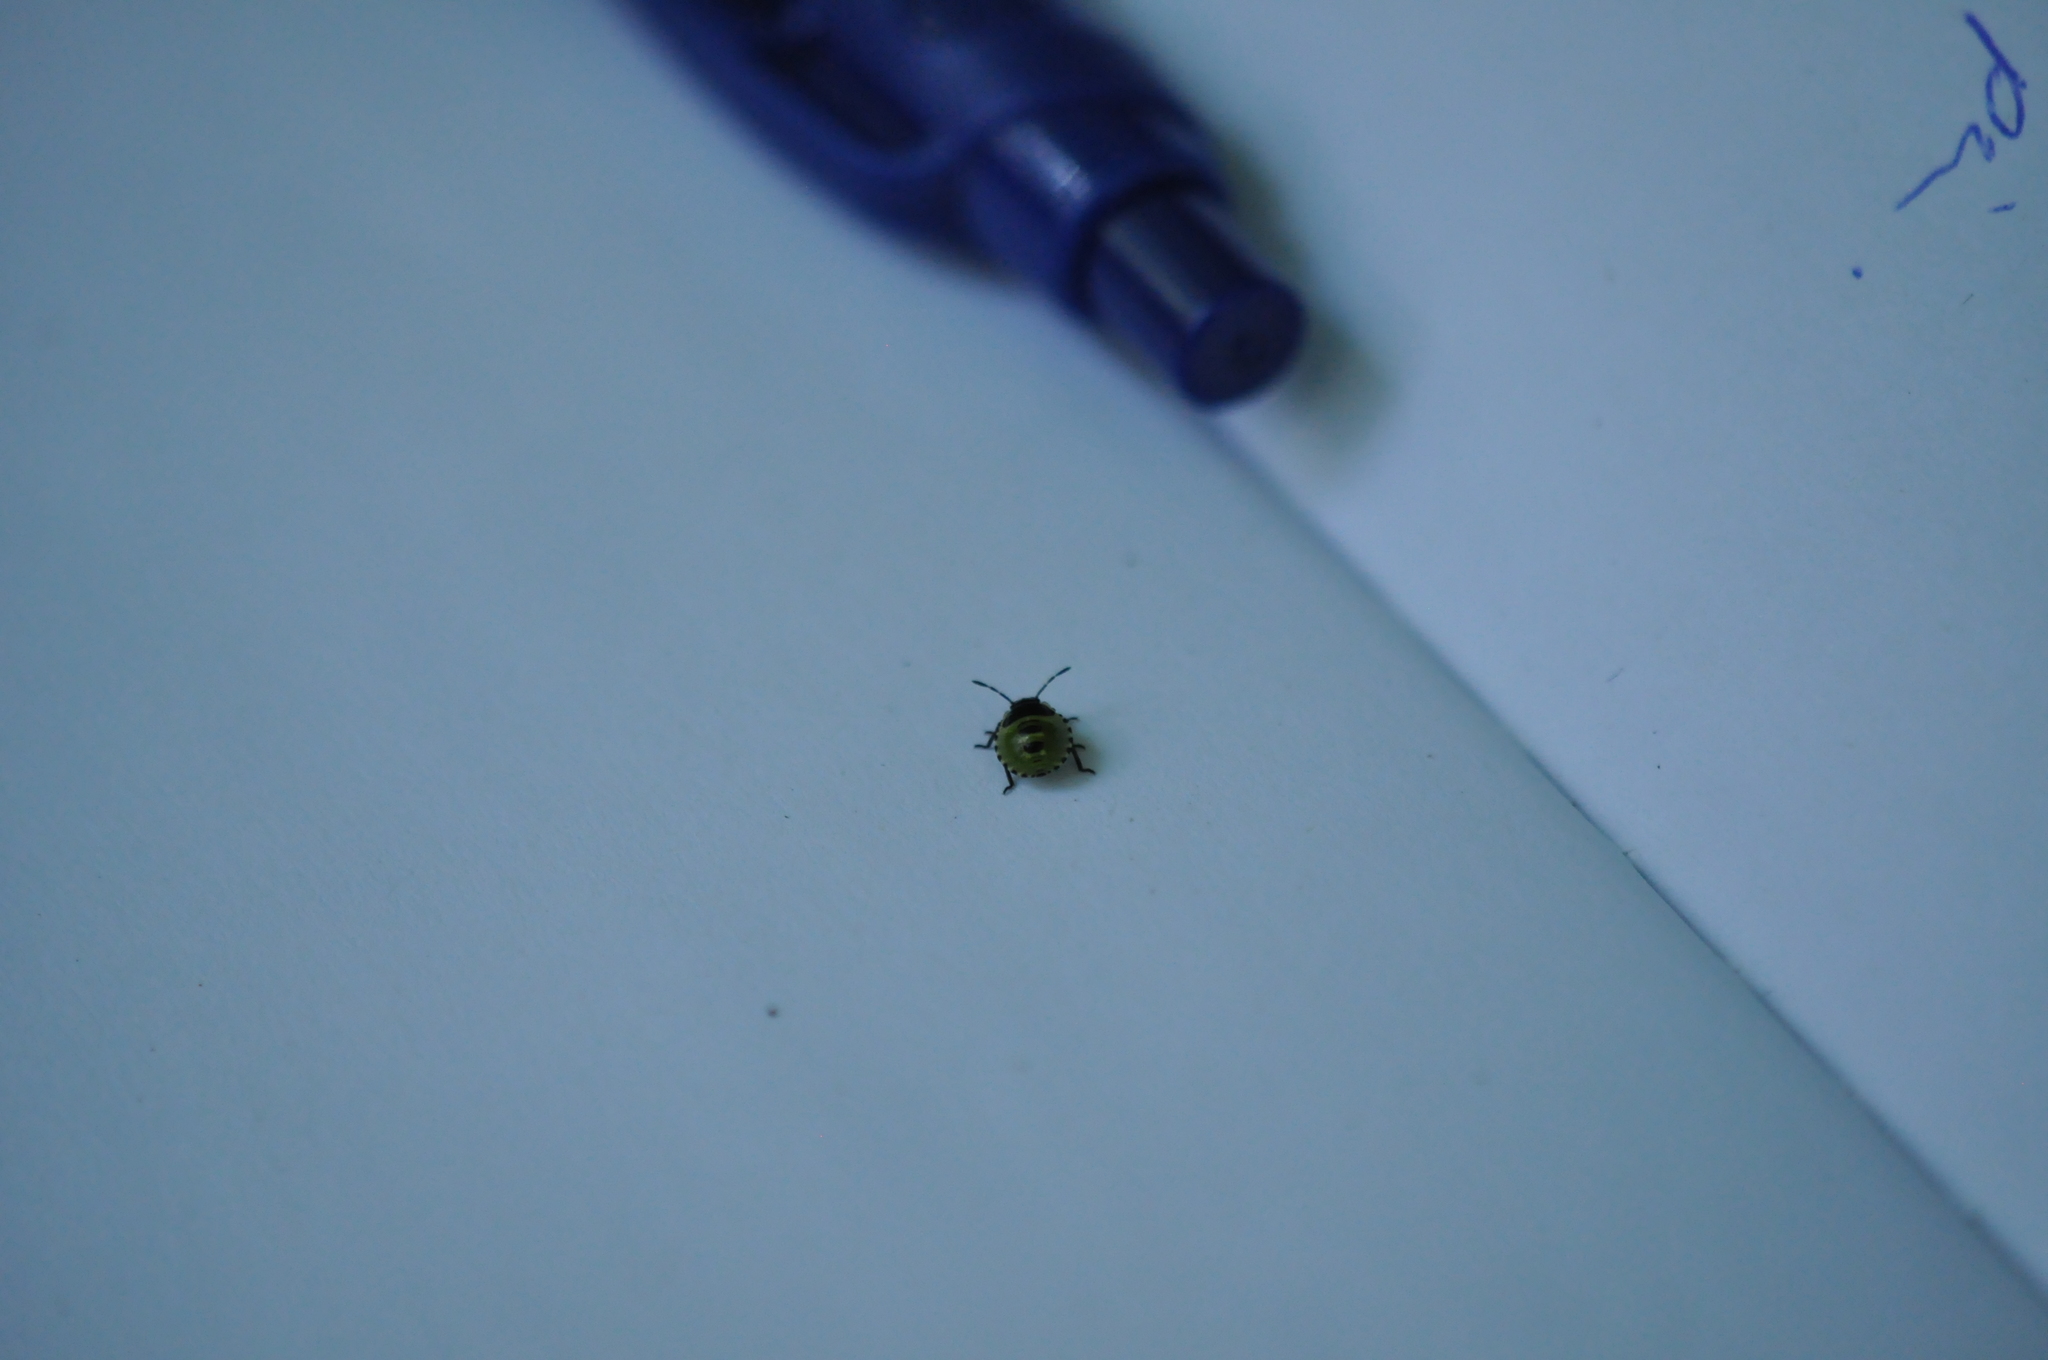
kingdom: Animalia
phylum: Arthropoda
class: Insecta
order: Hemiptera
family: Pentatomidae
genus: Palomena
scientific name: Palomena prasina
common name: Green shieldbug
